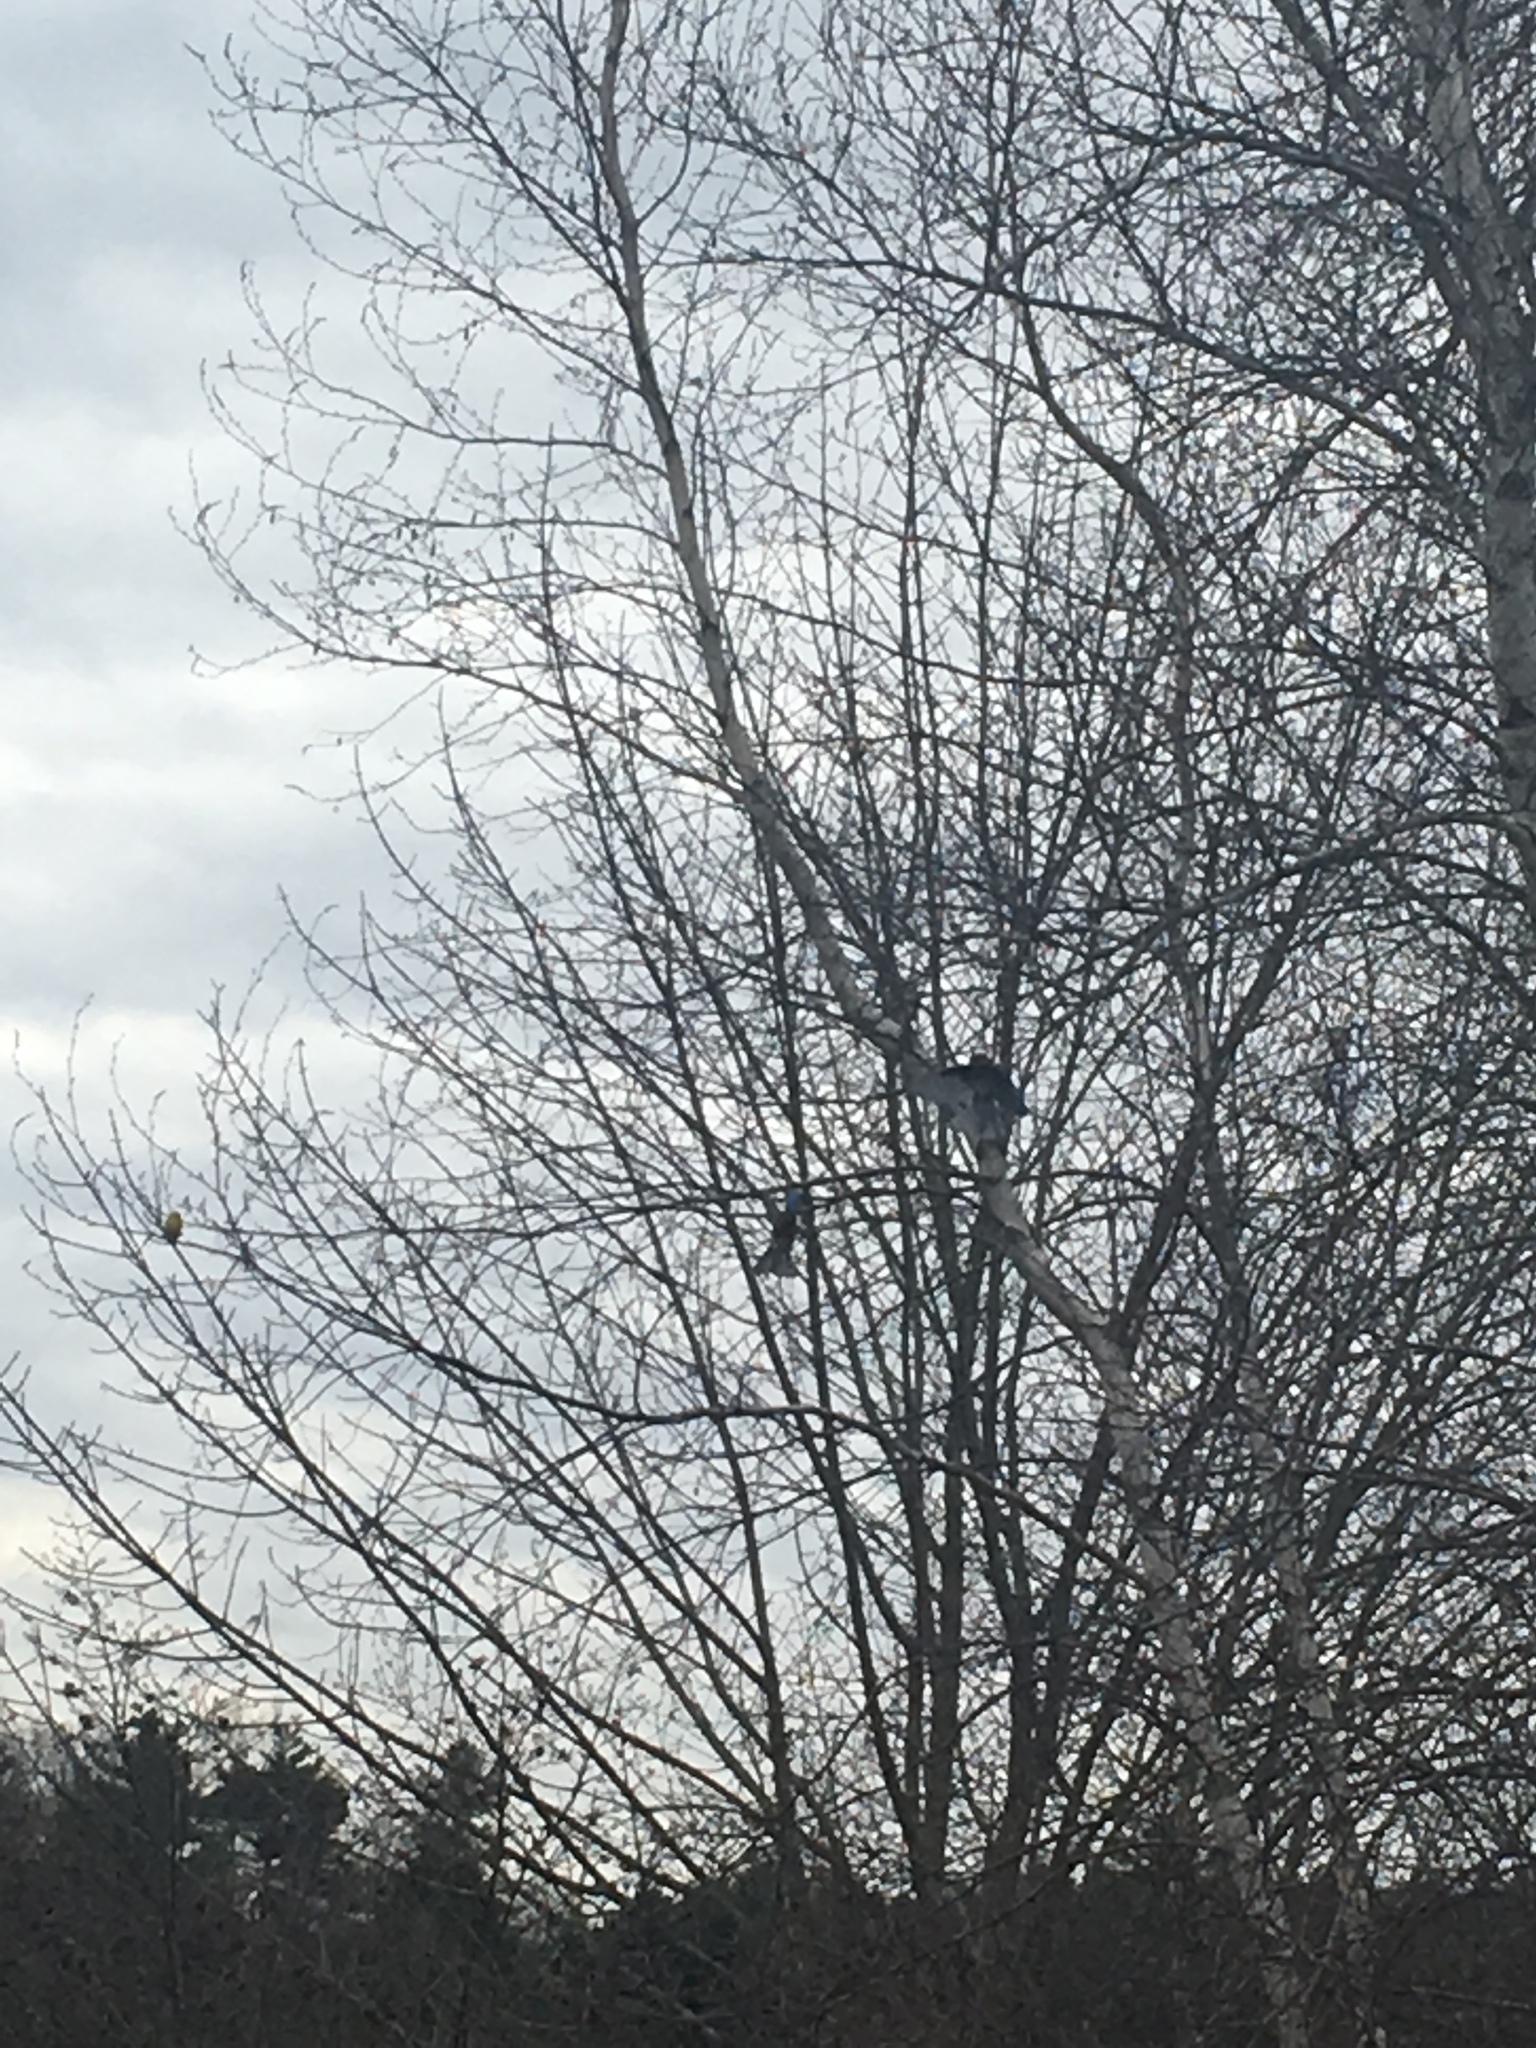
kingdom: Animalia
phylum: Chordata
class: Aves
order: Passeriformes
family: Turdidae
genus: Sialia
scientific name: Sialia sialis
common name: Eastern bluebird
